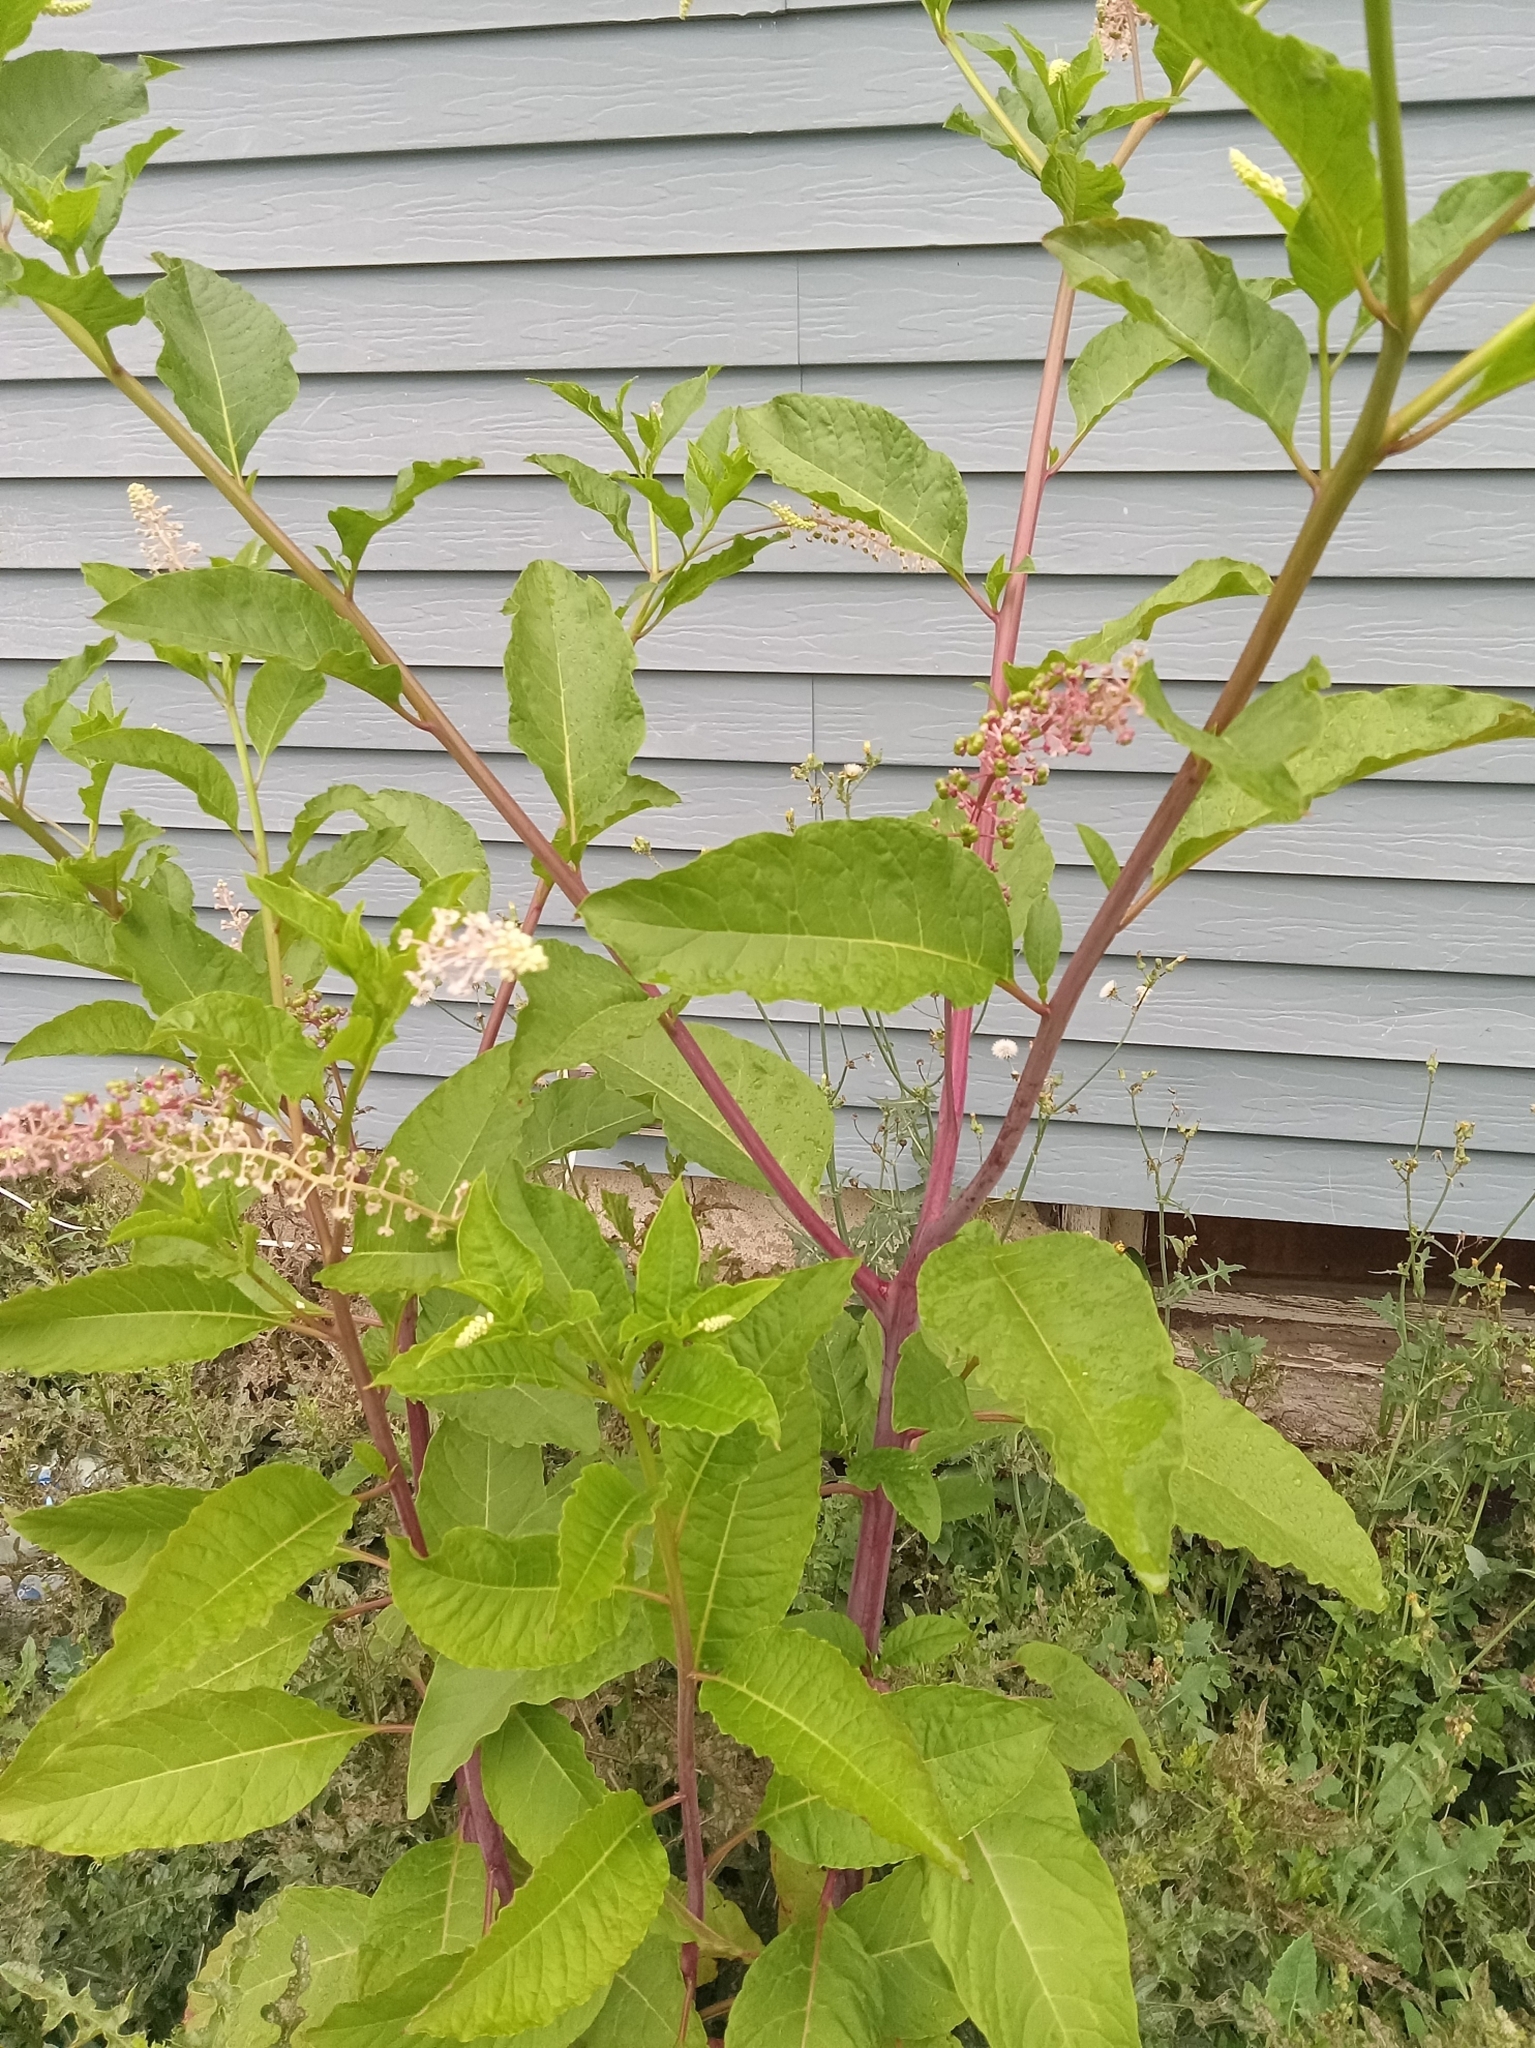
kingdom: Plantae
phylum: Tracheophyta
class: Magnoliopsida
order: Caryophyllales
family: Phytolaccaceae
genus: Phytolacca
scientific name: Phytolacca americana
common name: American pokeweed
